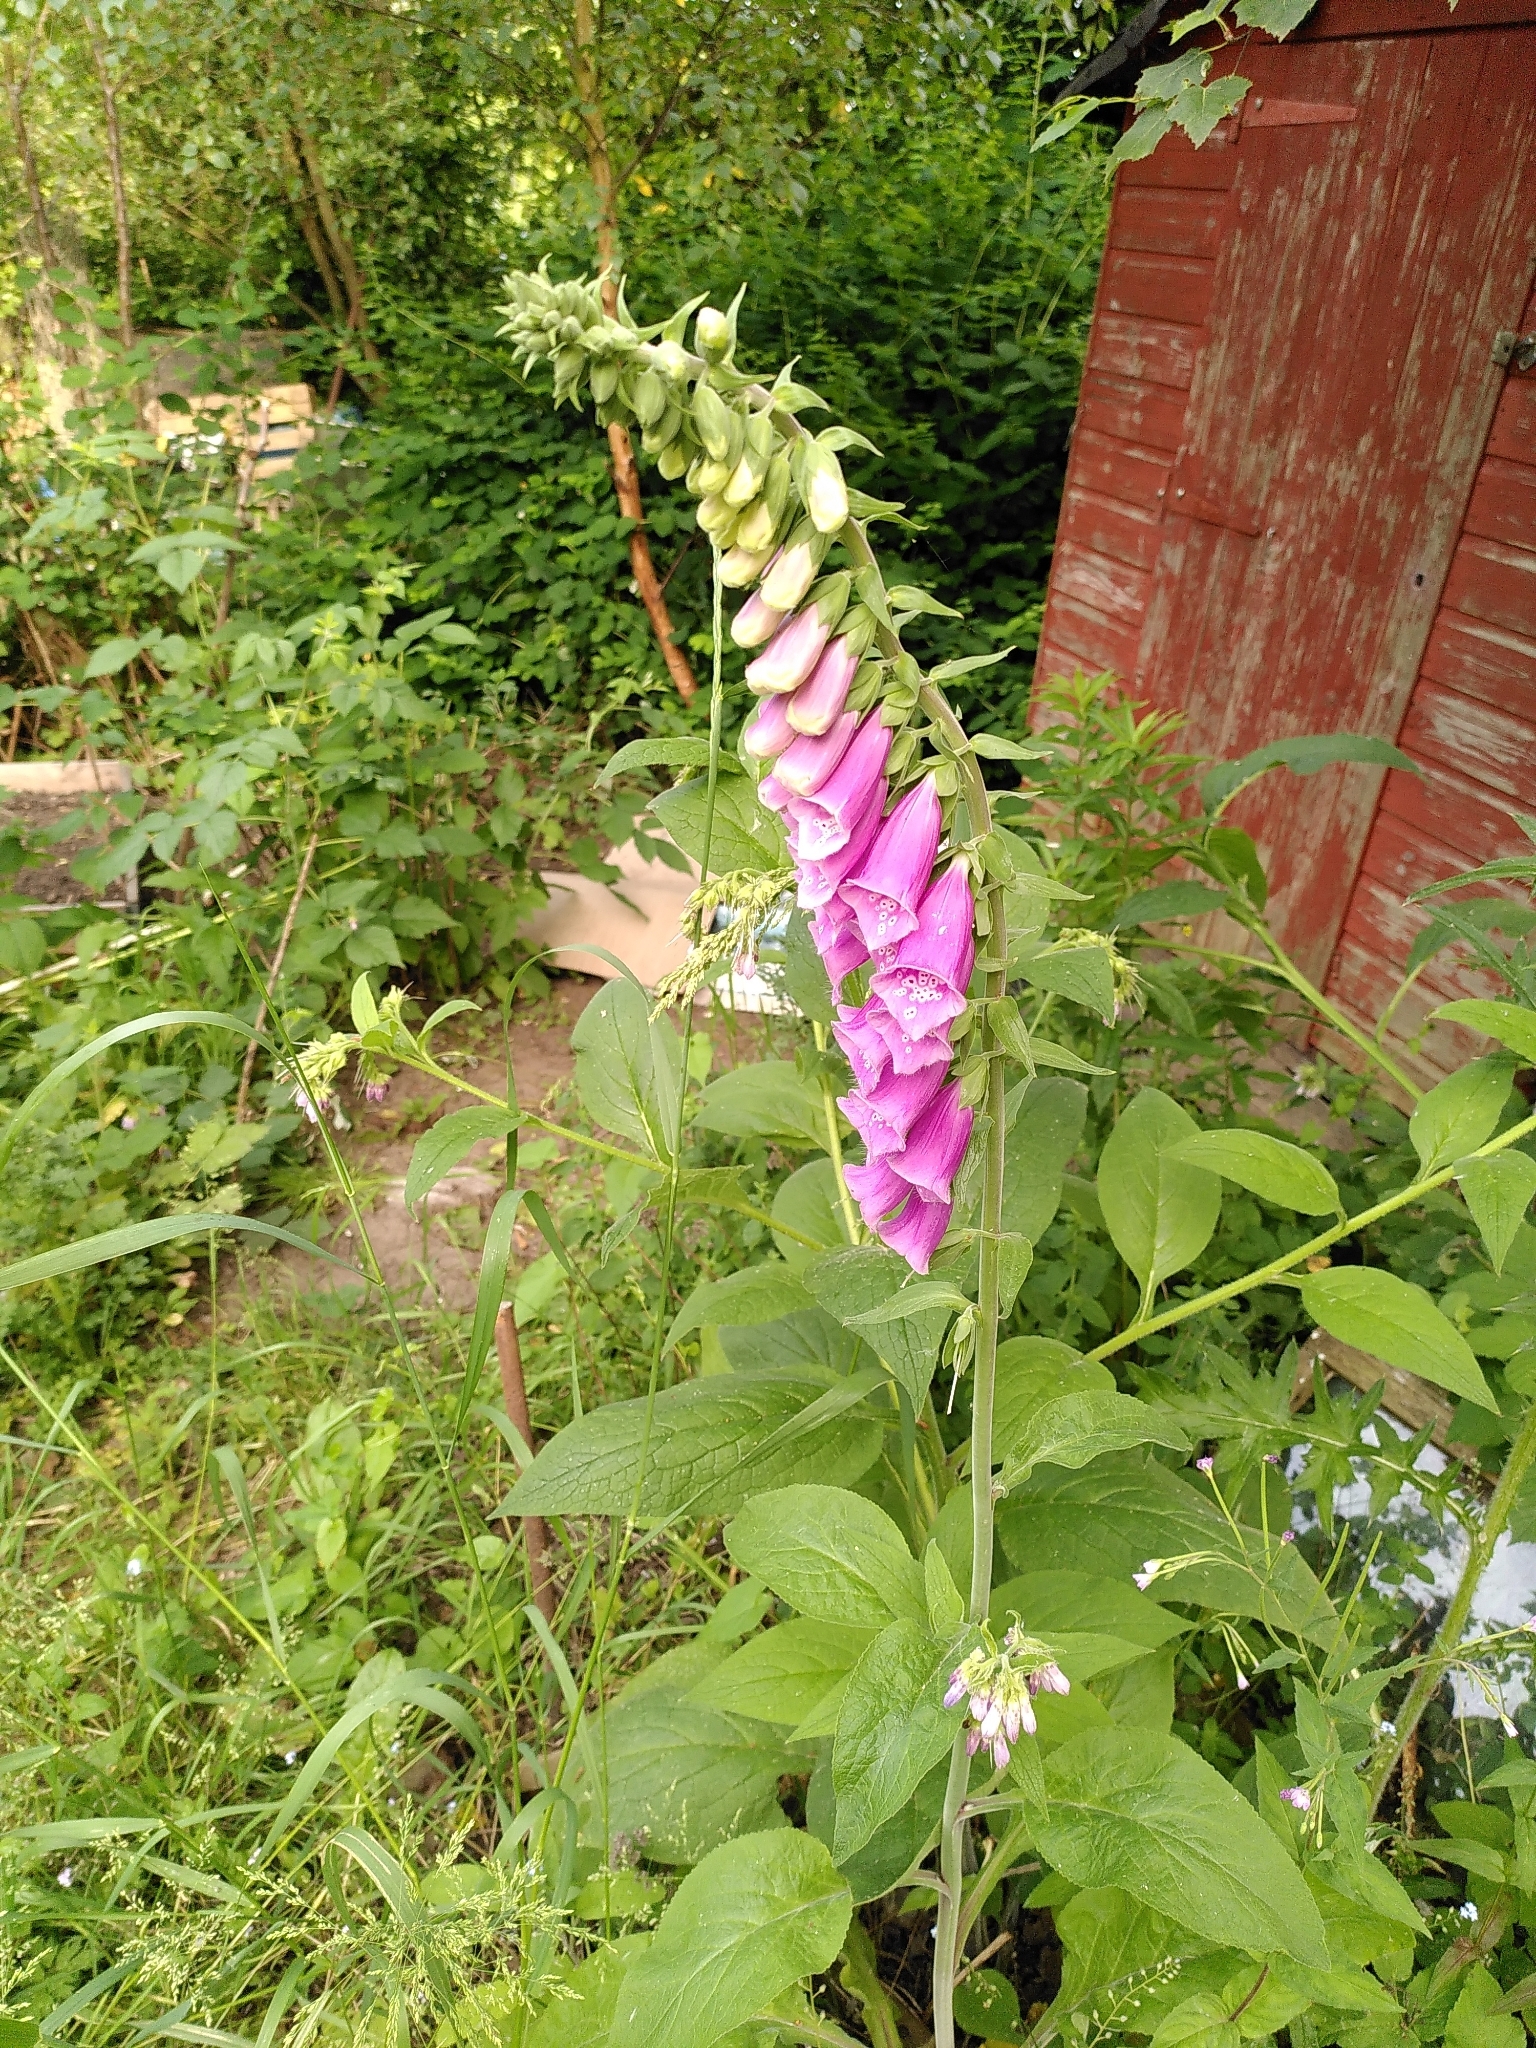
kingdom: Plantae
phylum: Tracheophyta
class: Magnoliopsida
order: Lamiales
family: Plantaginaceae
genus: Digitalis
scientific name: Digitalis purpurea
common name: Foxglove
